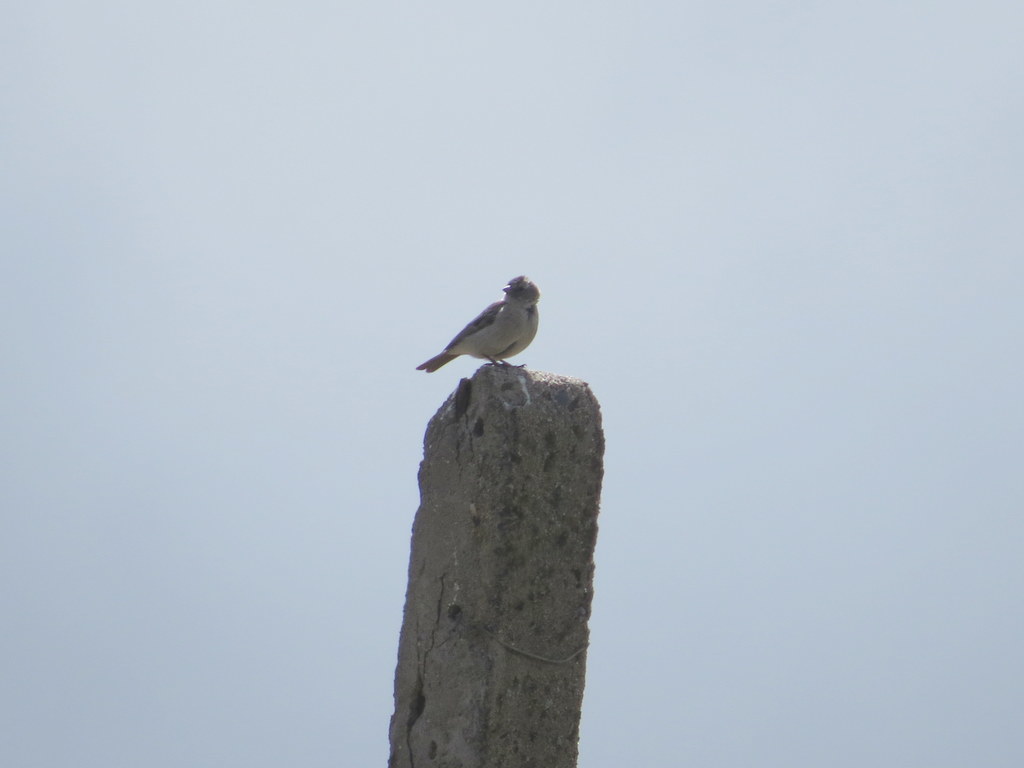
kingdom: Animalia
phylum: Chordata
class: Aves
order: Passeriformes
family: Thraupidae
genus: Geospizopsis
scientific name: Geospizopsis plebejus
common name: Ash-breasted sierra-finch
